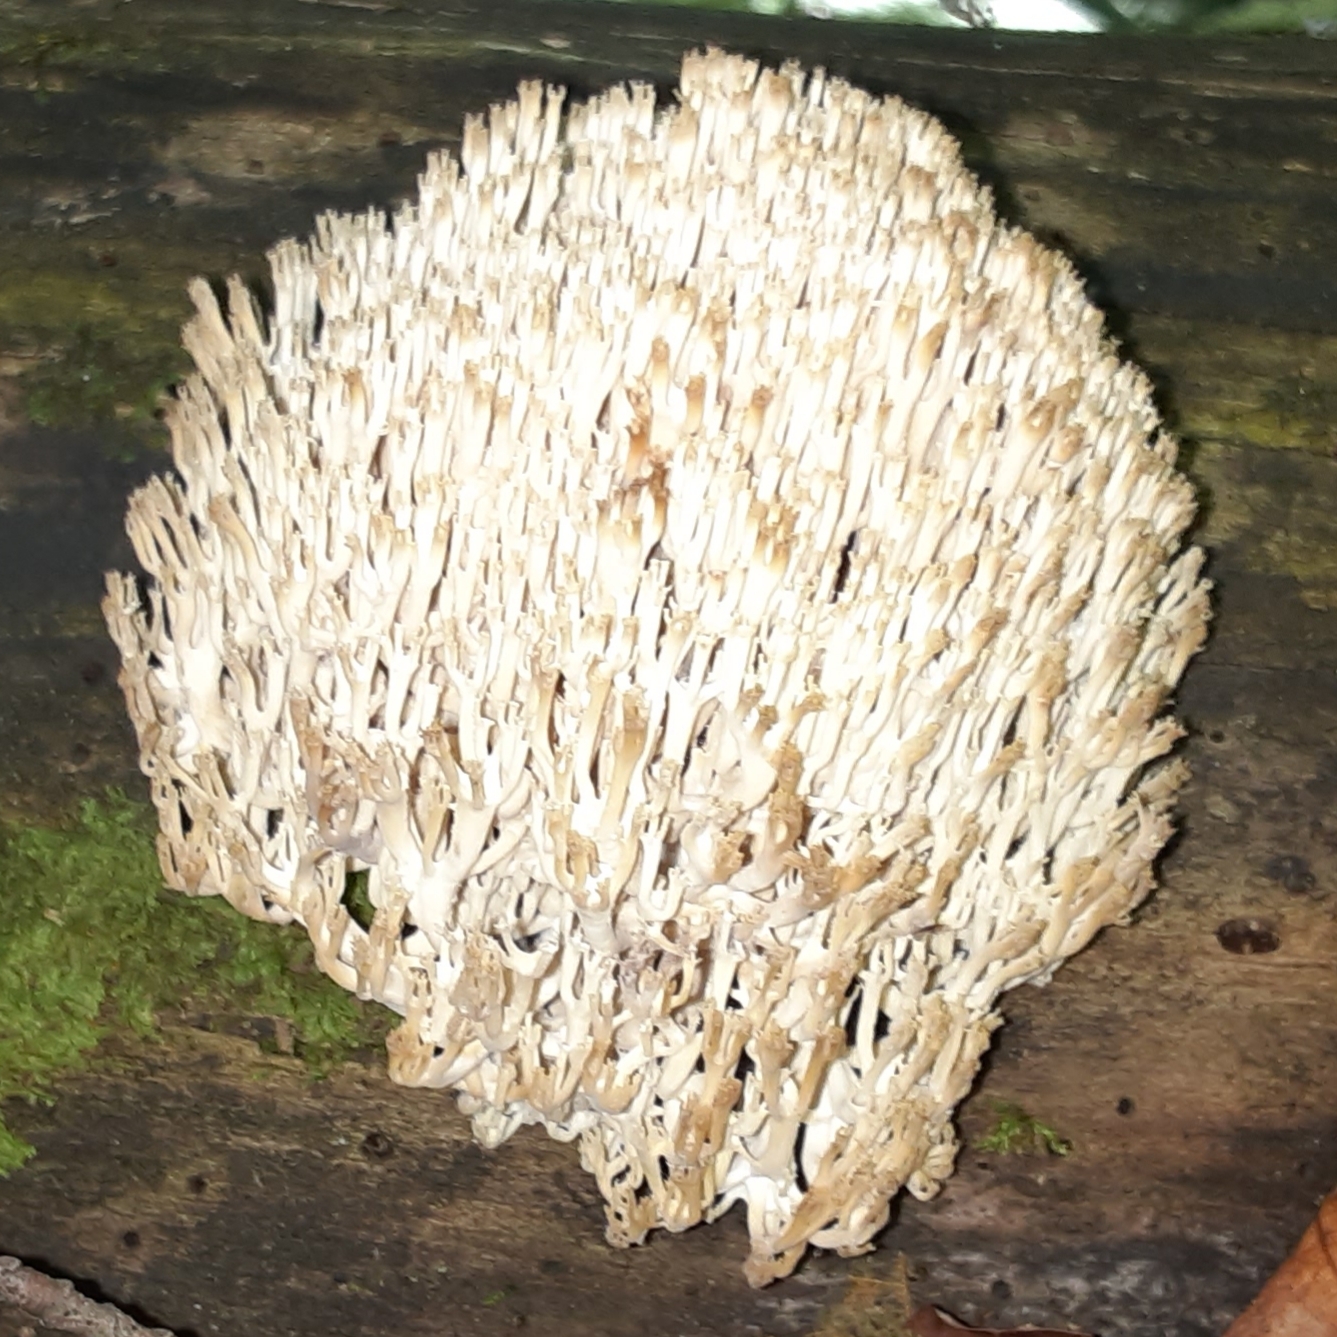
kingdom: Fungi
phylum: Basidiomycota
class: Agaricomycetes
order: Russulales
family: Auriscalpiaceae
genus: Artomyces
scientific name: Artomyces pyxidatus
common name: Crown-tipped coral fungus
